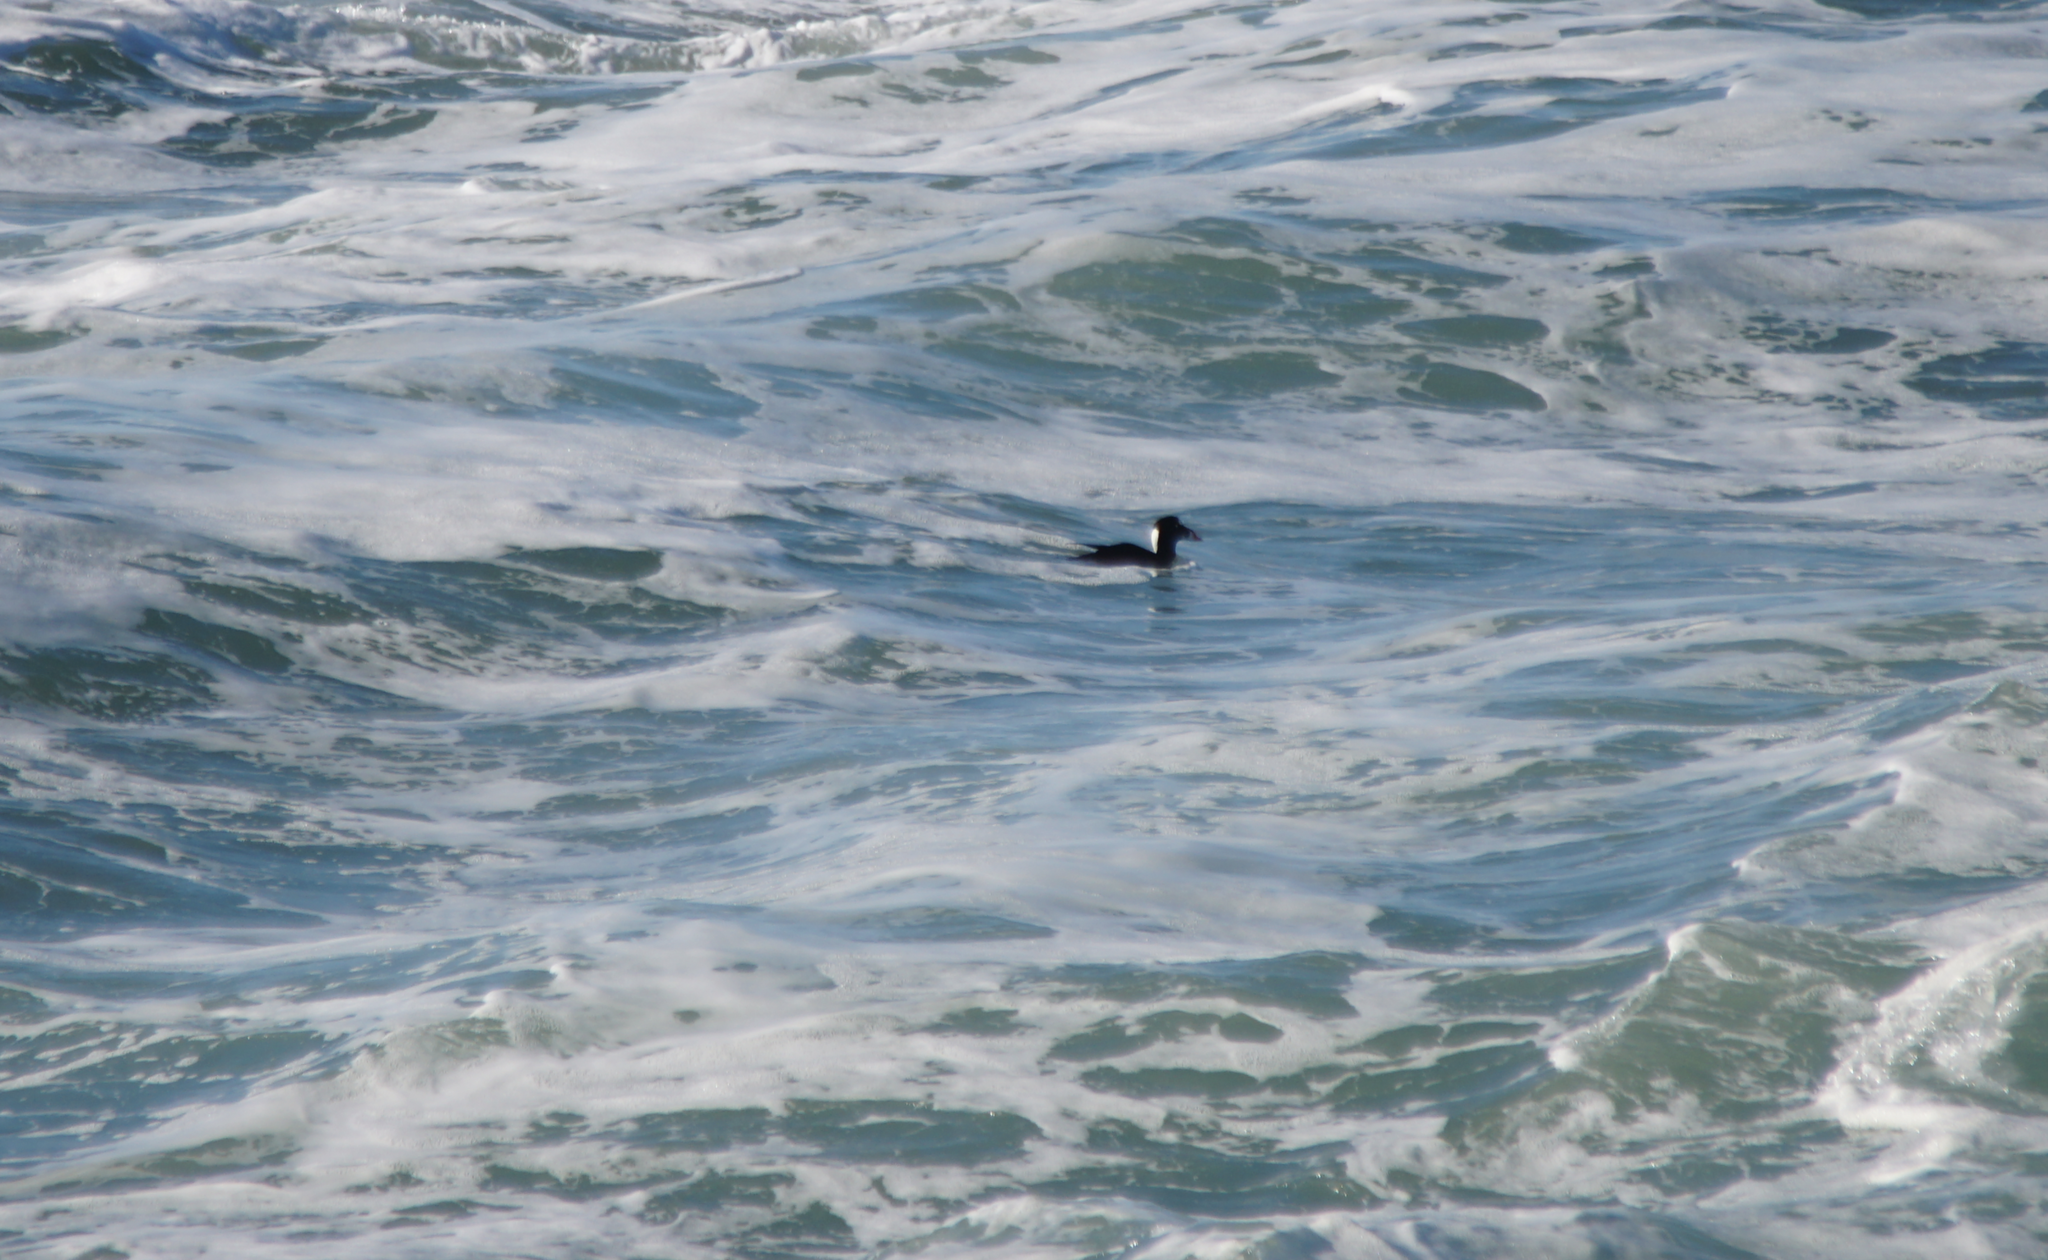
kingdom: Animalia
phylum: Chordata
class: Aves
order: Anseriformes
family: Anatidae
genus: Melanitta
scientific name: Melanitta perspicillata
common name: Surf scoter
